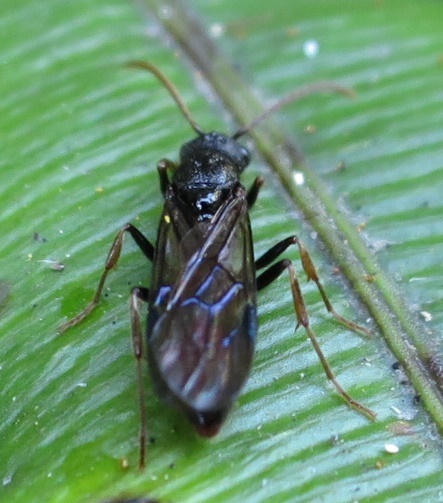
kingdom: Animalia
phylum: Arthropoda
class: Insecta
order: Hymenoptera
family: Formicidae
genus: Amblyopone
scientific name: Amblyopone australis
